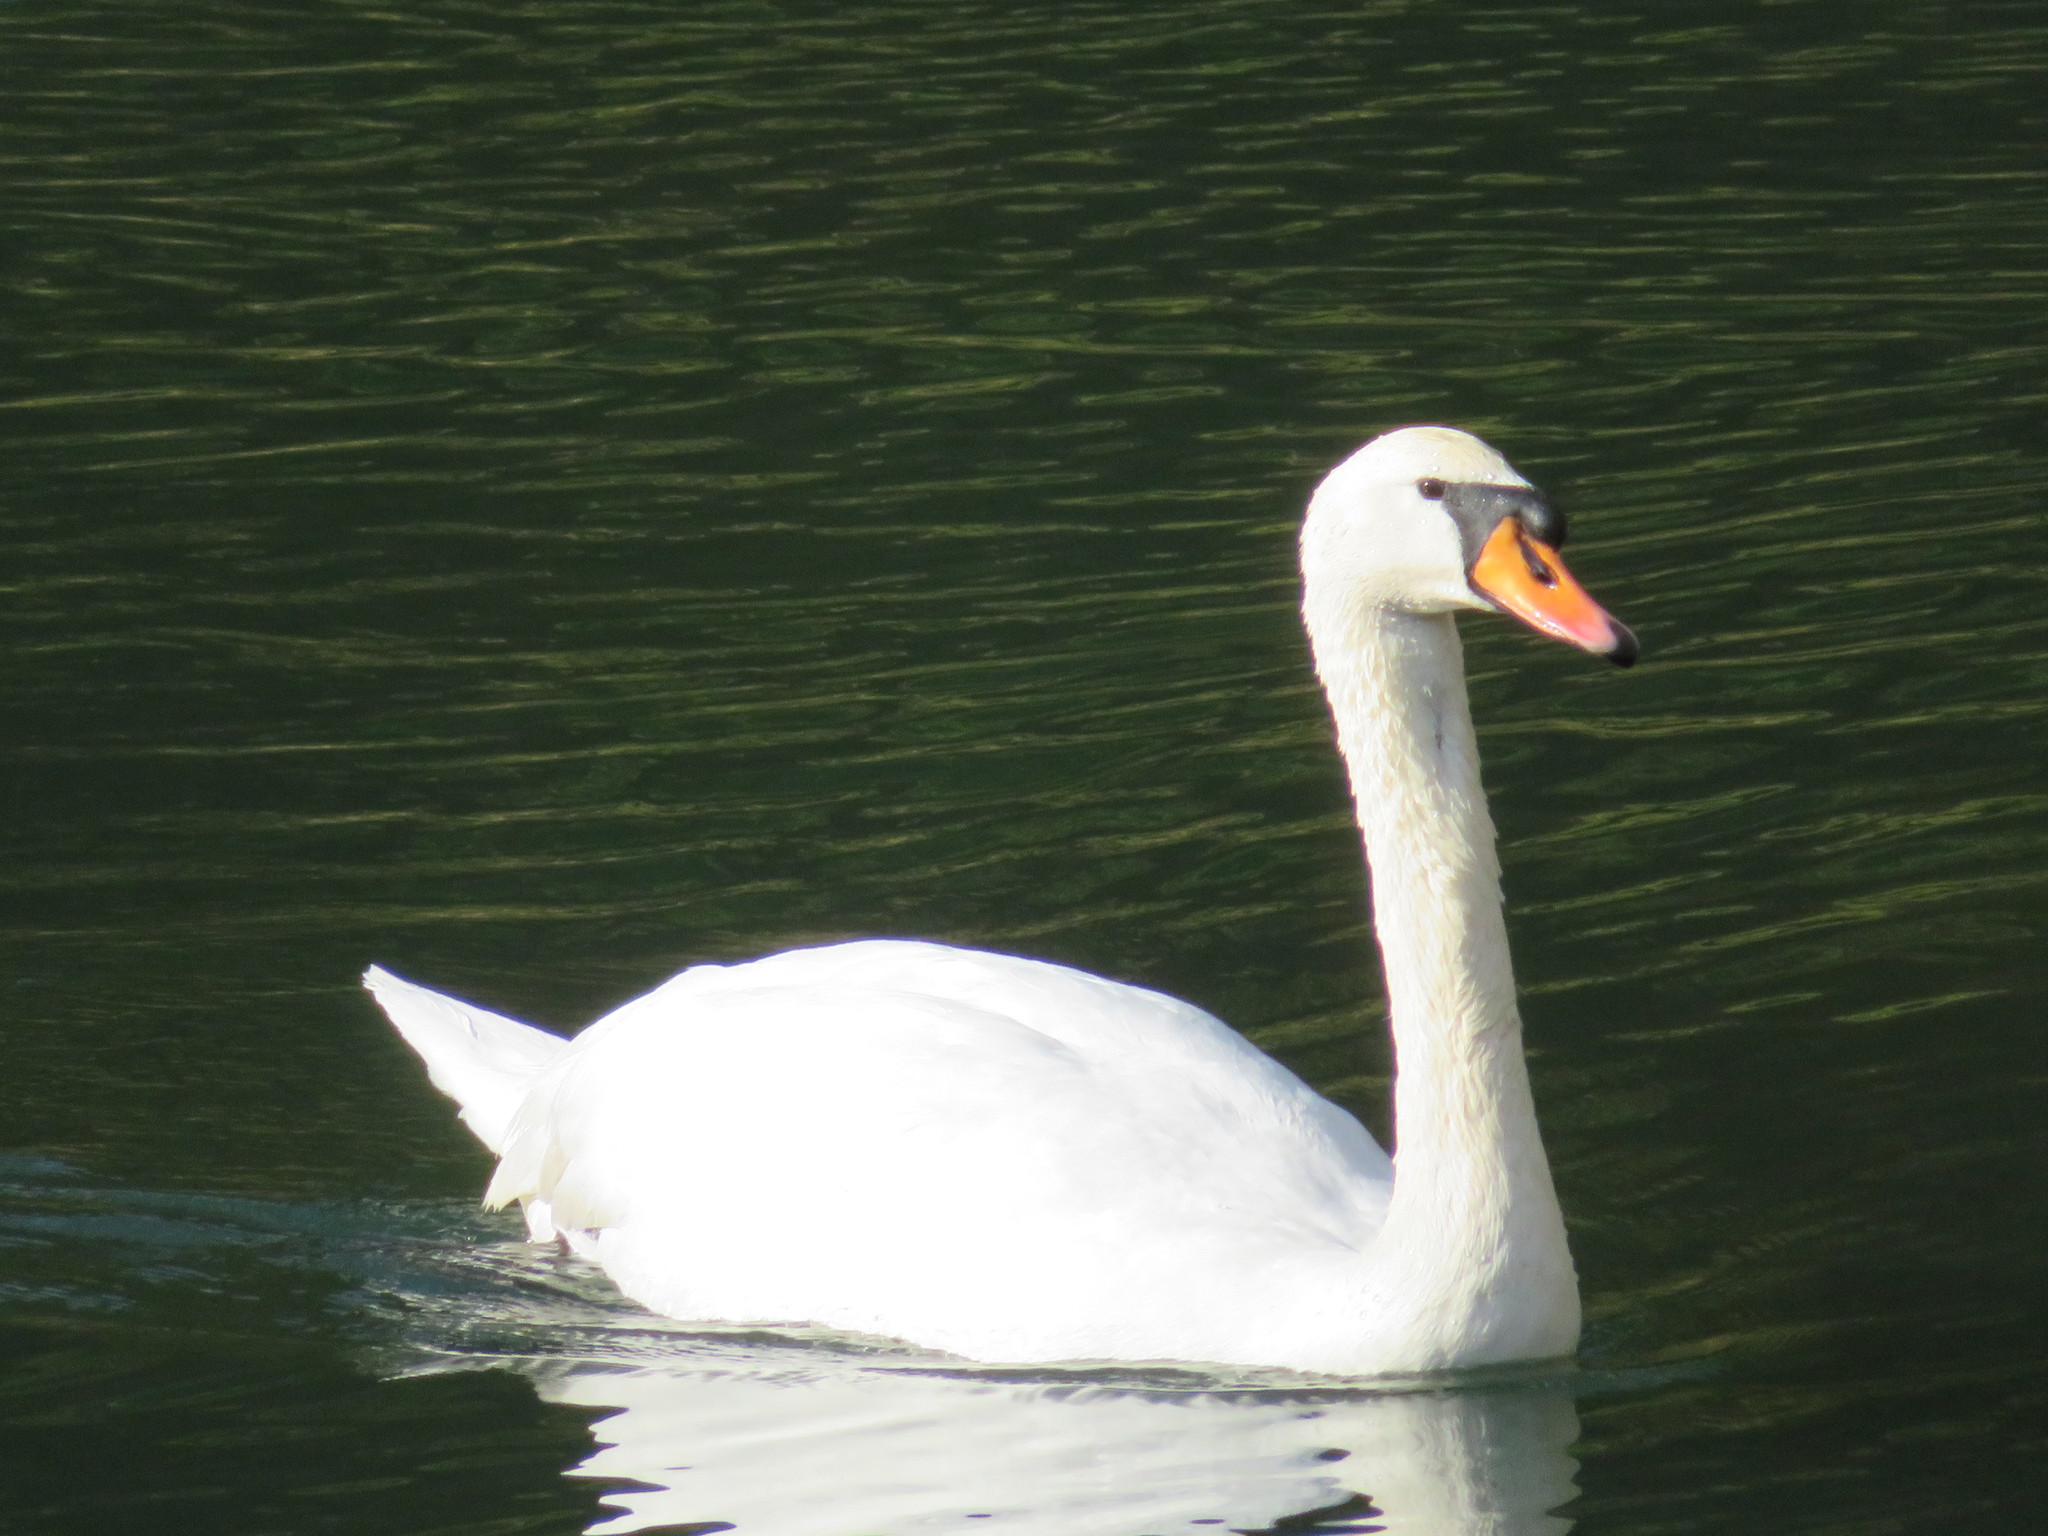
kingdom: Animalia
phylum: Chordata
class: Aves
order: Anseriformes
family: Anatidae
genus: Cygnus
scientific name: Cygnus olor
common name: Mute swan
